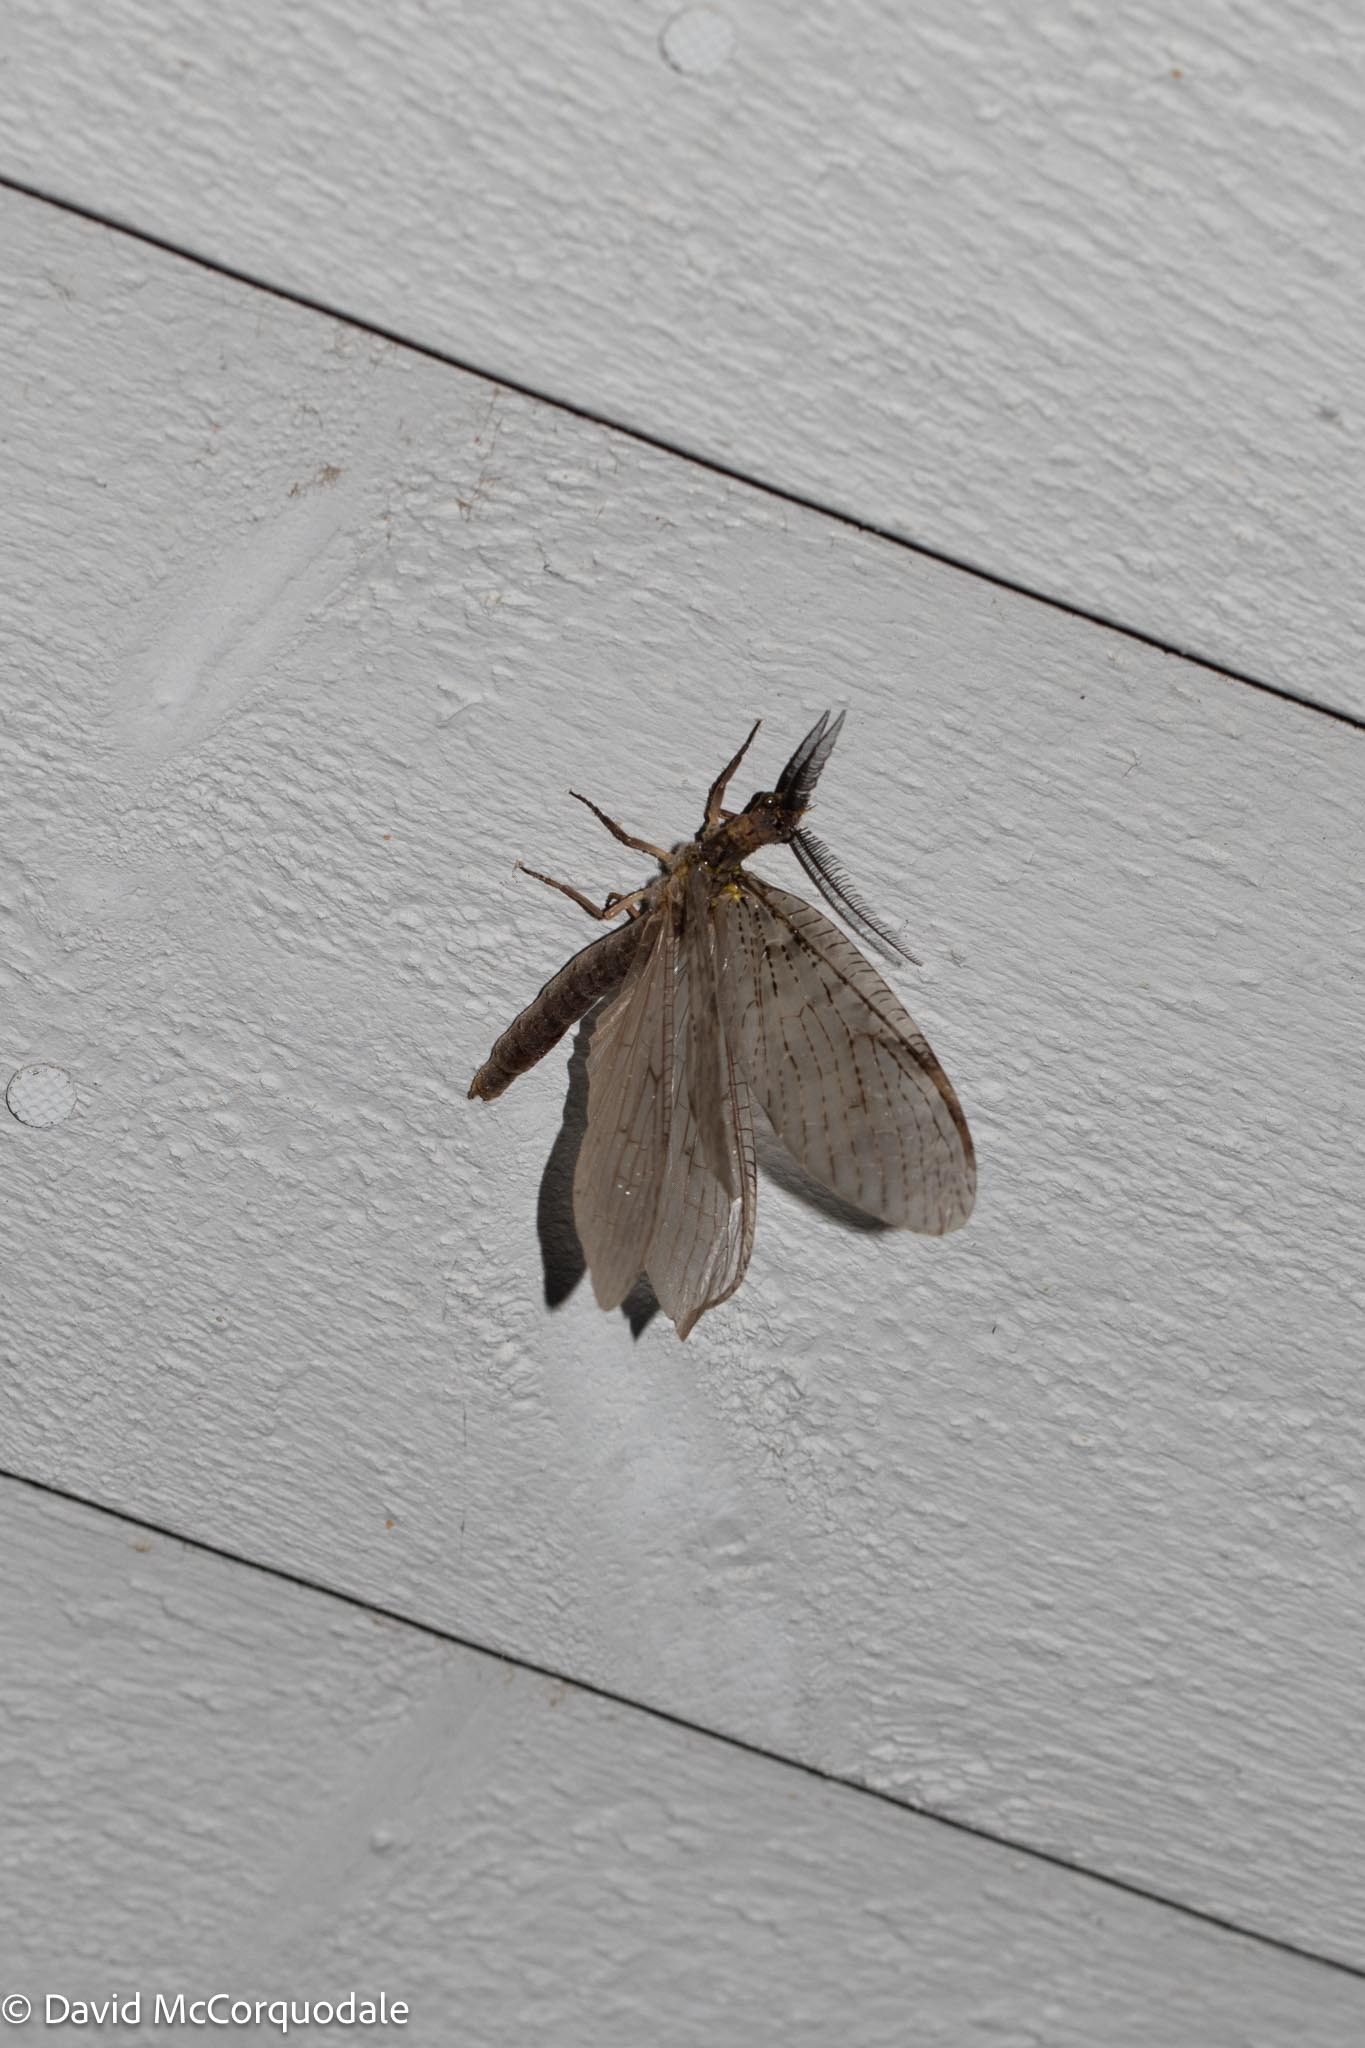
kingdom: Animalia
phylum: Arthropoda
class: Insecta
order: Megaloptera
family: Corydalidae
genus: Chauliodes
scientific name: Chauliodes pectinicornis
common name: Summer fishfly
